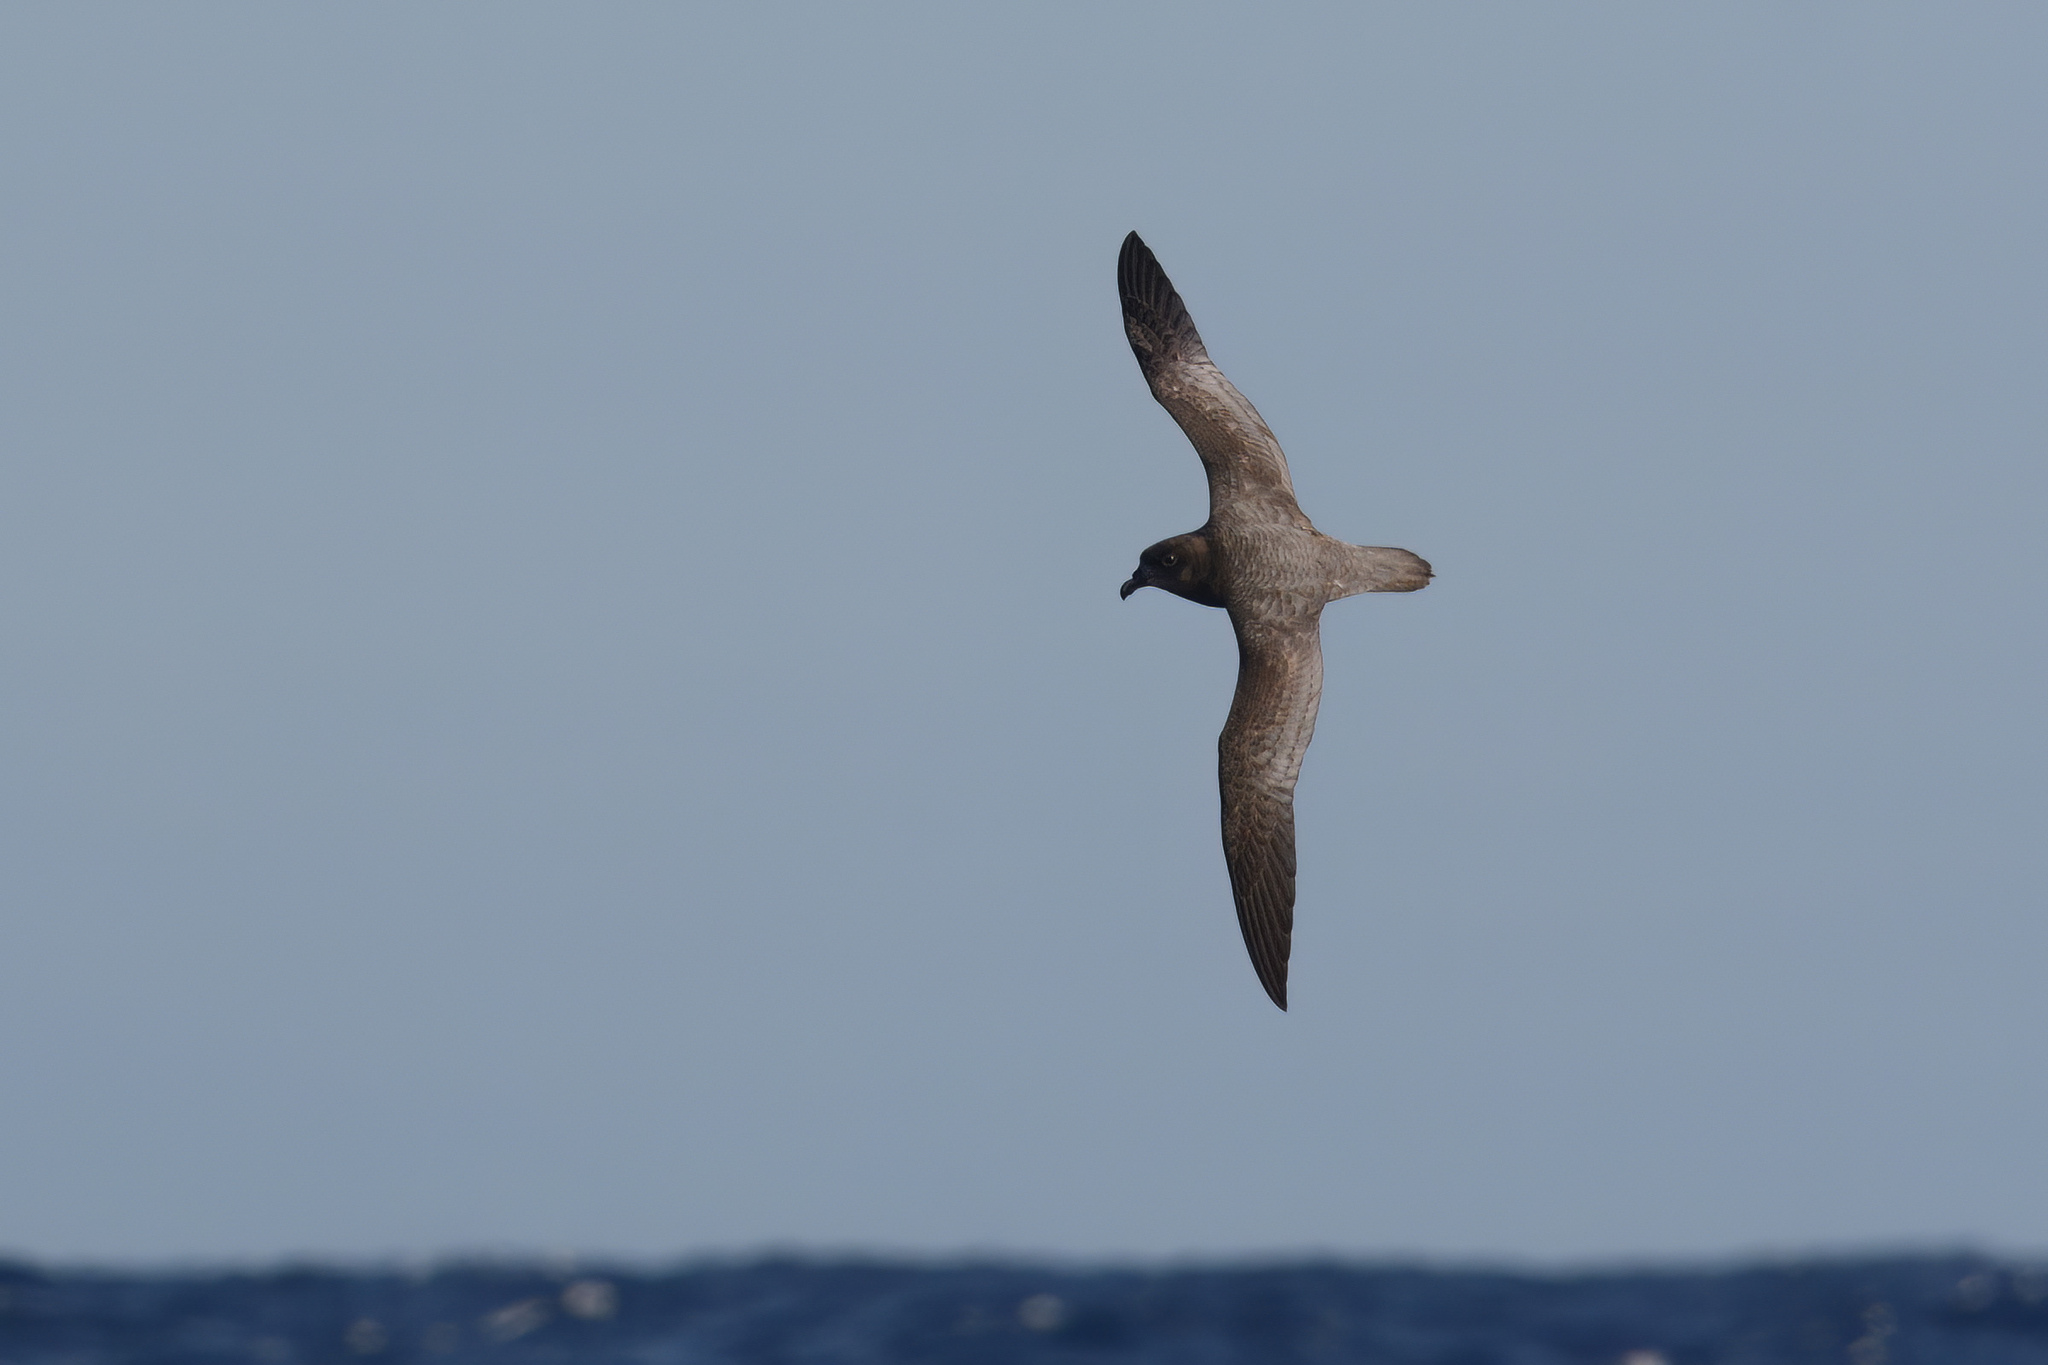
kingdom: Animalia
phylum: Chordata
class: Aves
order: Procellariiformes
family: Procellariidae
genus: Pterodroma
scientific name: Pterodroma solandri
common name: Providence petrel
